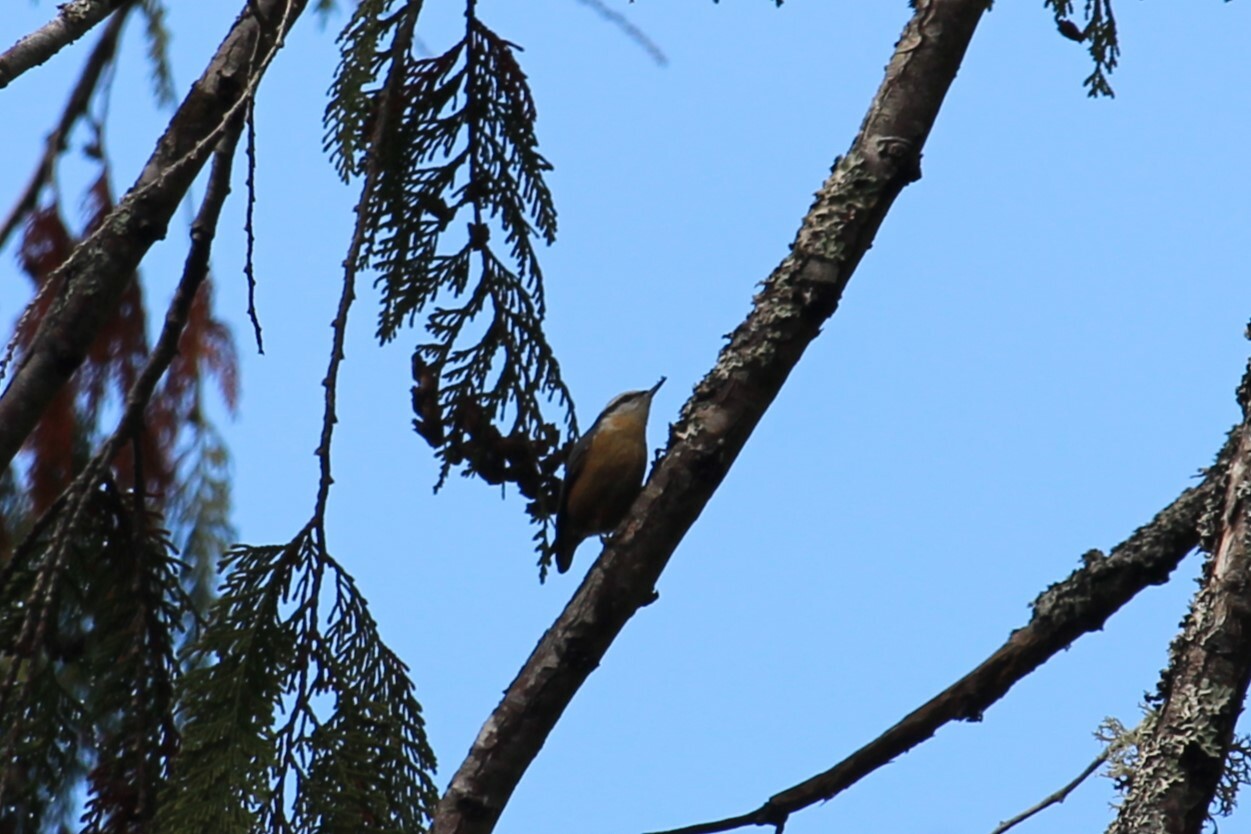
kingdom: Animalia
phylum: Chordata
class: Aves
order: Passeriformes
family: Sittidae
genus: Sitta
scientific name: Sitta canadensis
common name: Red-breasted nuthatch
